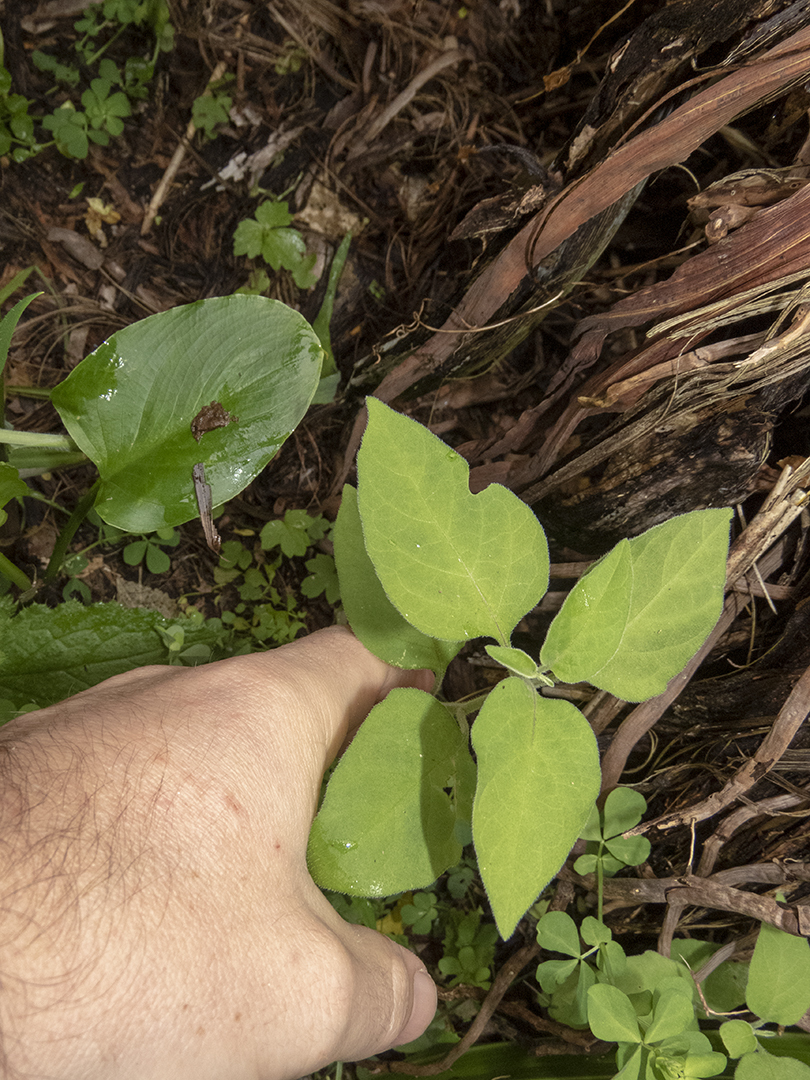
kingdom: Plantae
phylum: Tracheophyta
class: Magnoliopsida
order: Solanales
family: Solanaceae
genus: Solanum
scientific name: Solanum chenopodioides
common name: Tall nightshade
